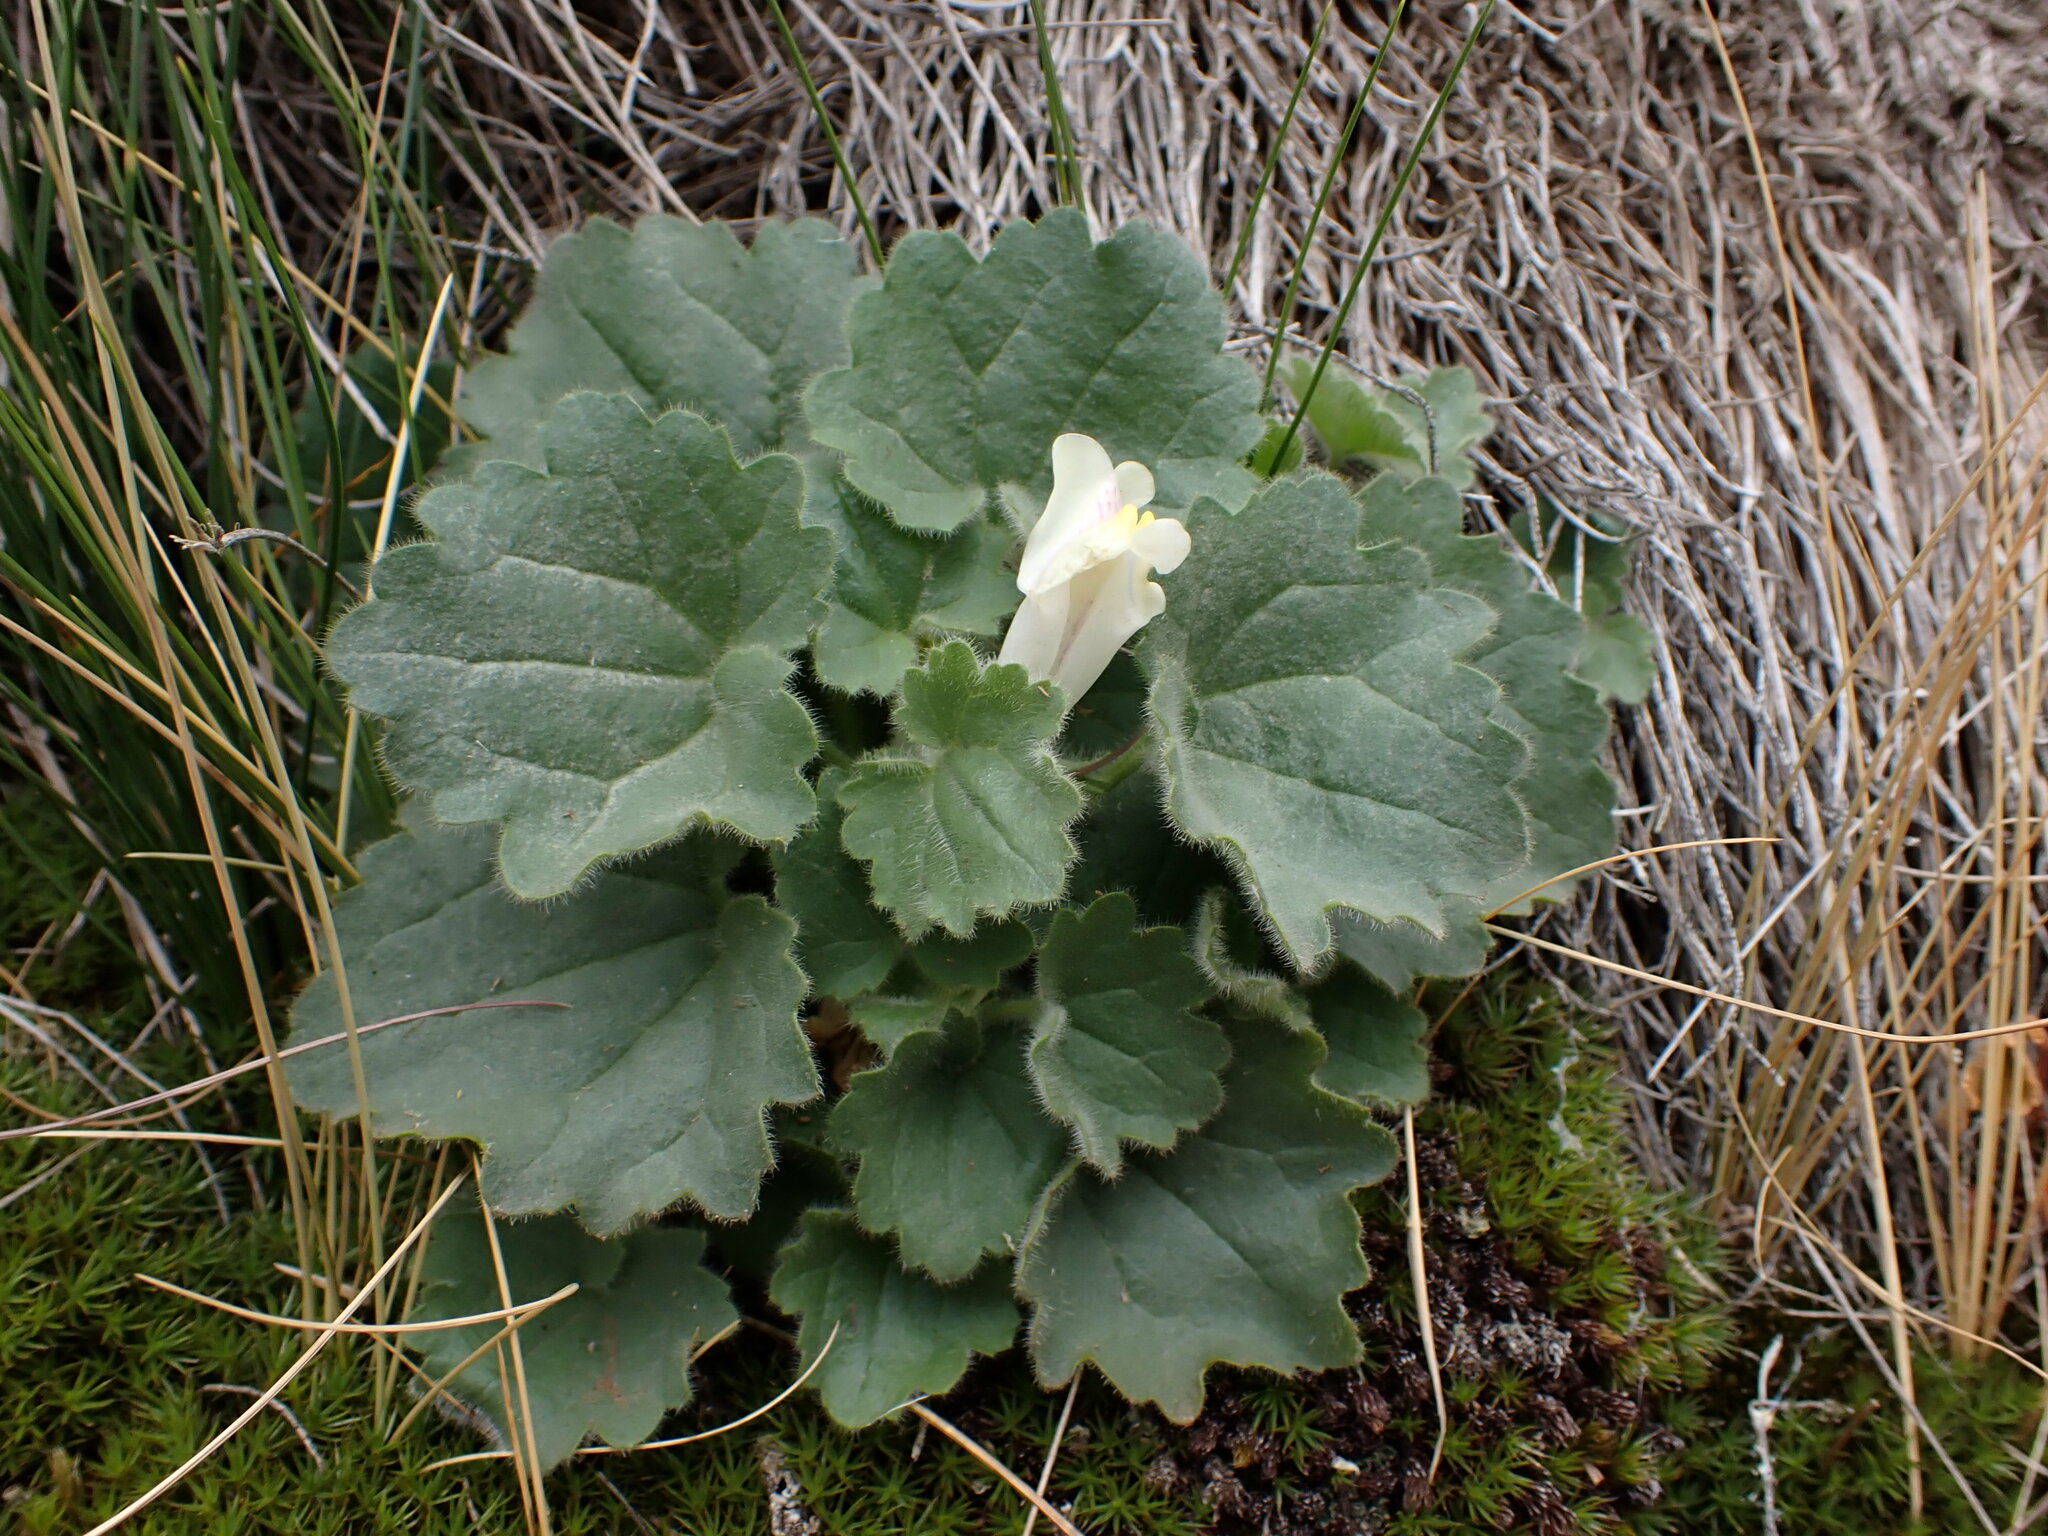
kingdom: Plantae
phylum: Tracheophyta
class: Magnoliopsida
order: Lamiales
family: Plantaginaceae
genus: Asarina
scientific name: Asarina procumbens
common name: Trailing snapdragon
